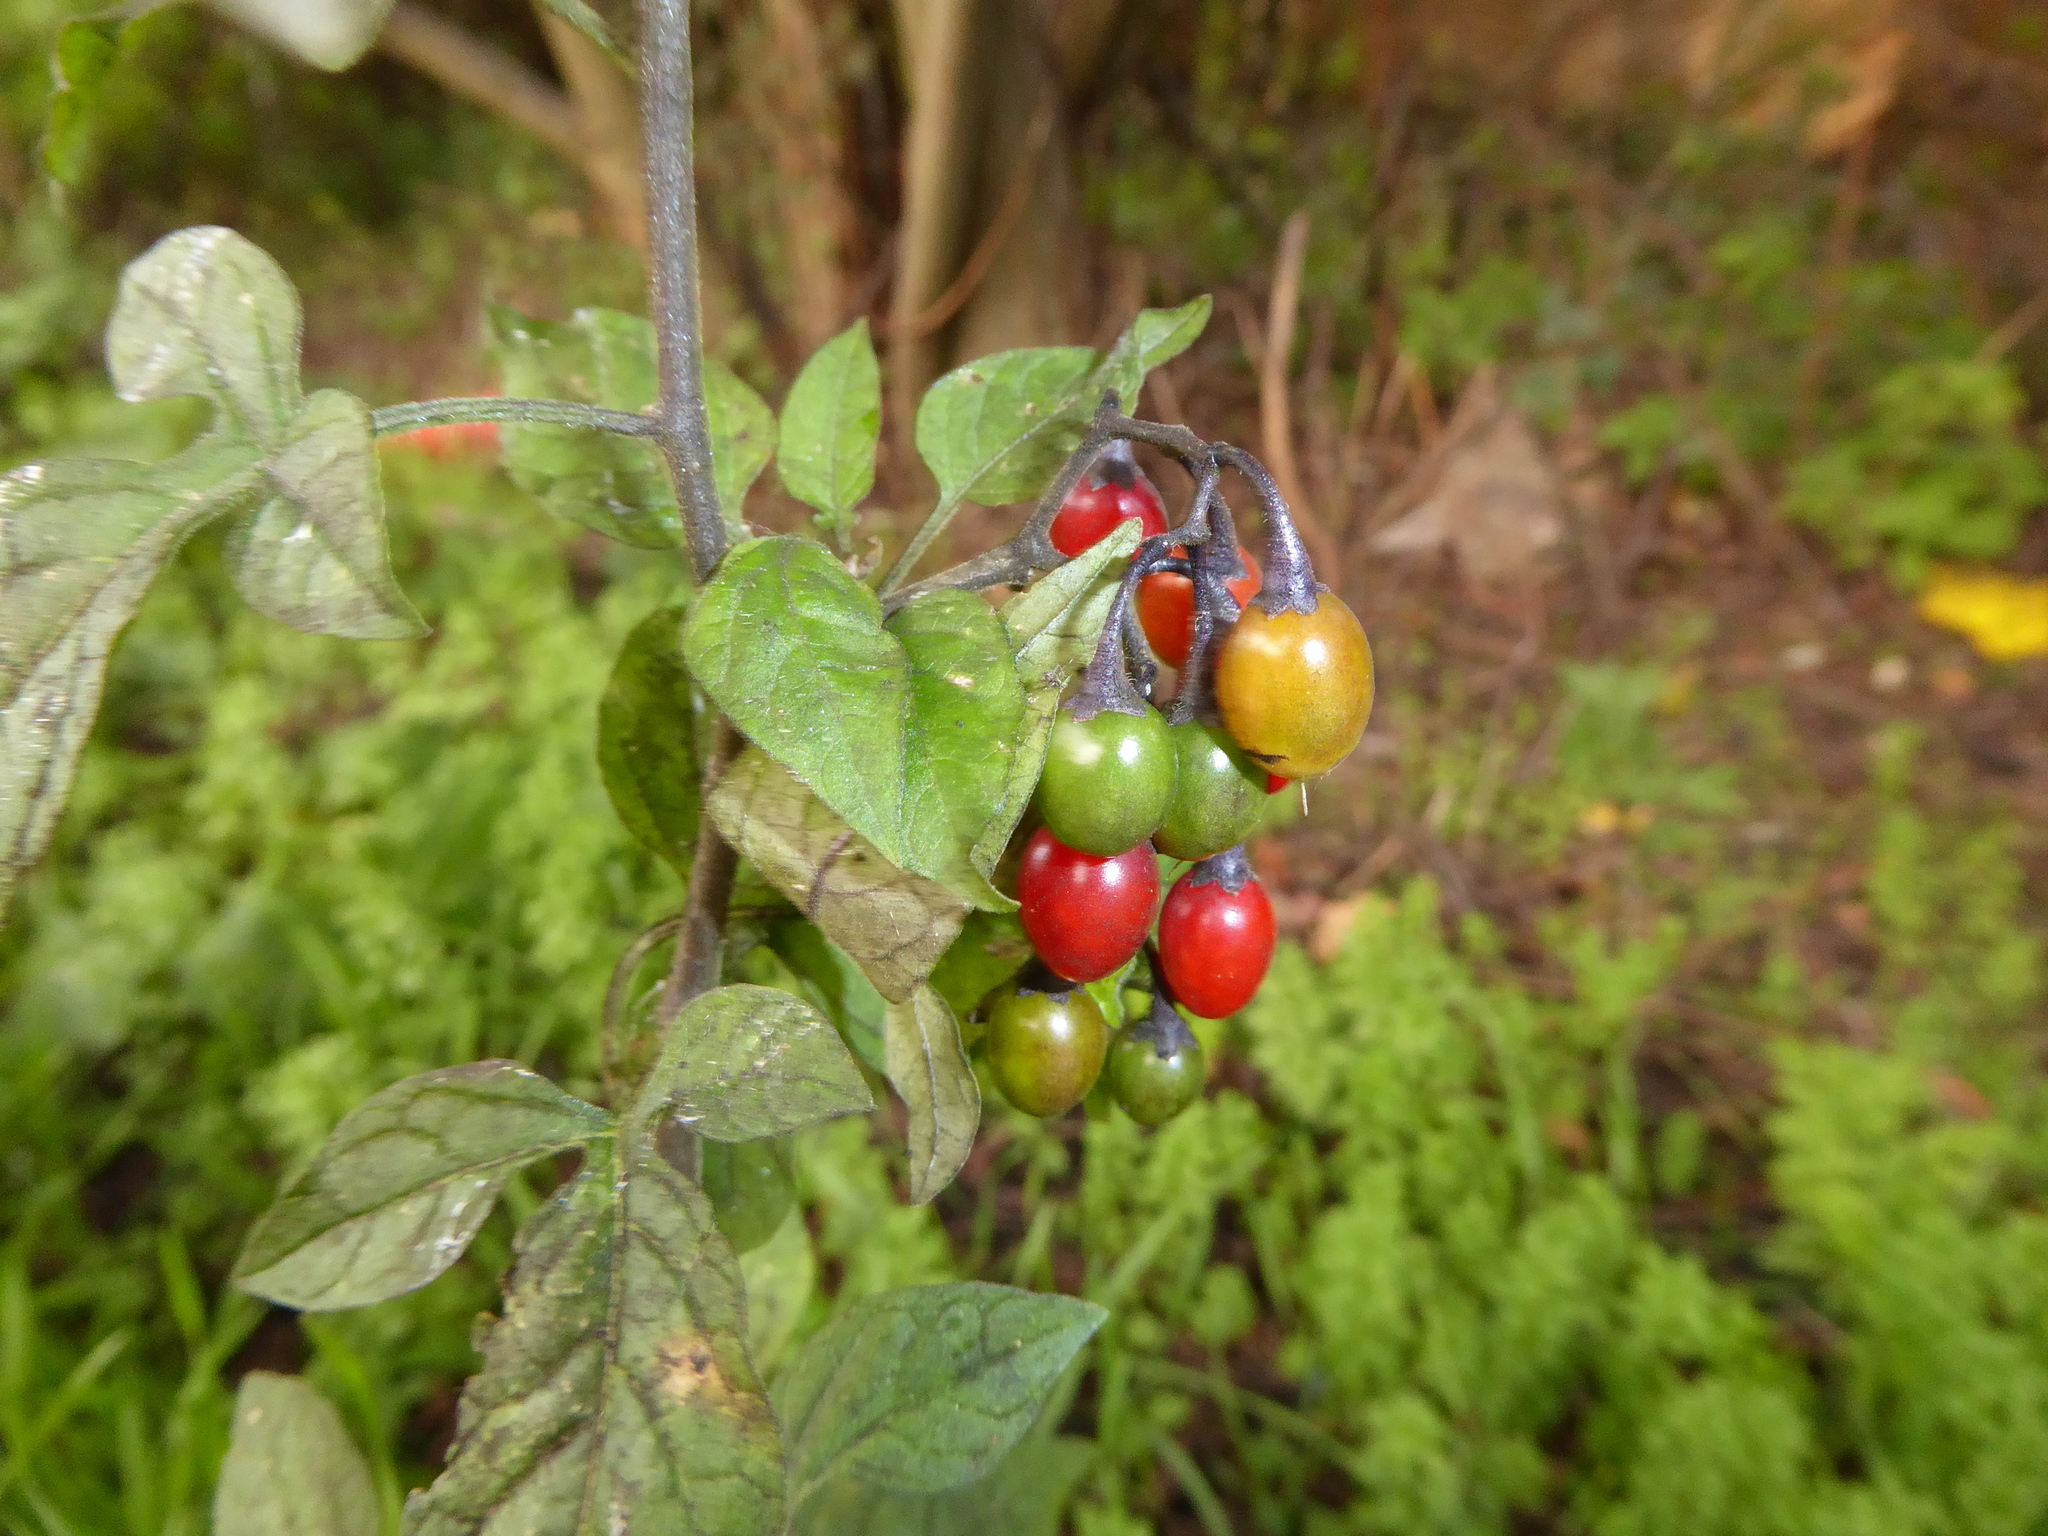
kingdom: Plantae
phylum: Tracheophyta
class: Magnoliopsida
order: Solanales
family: Solanaceae
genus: Solanum
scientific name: Solanum dulcamara
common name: Climbing nightshade
